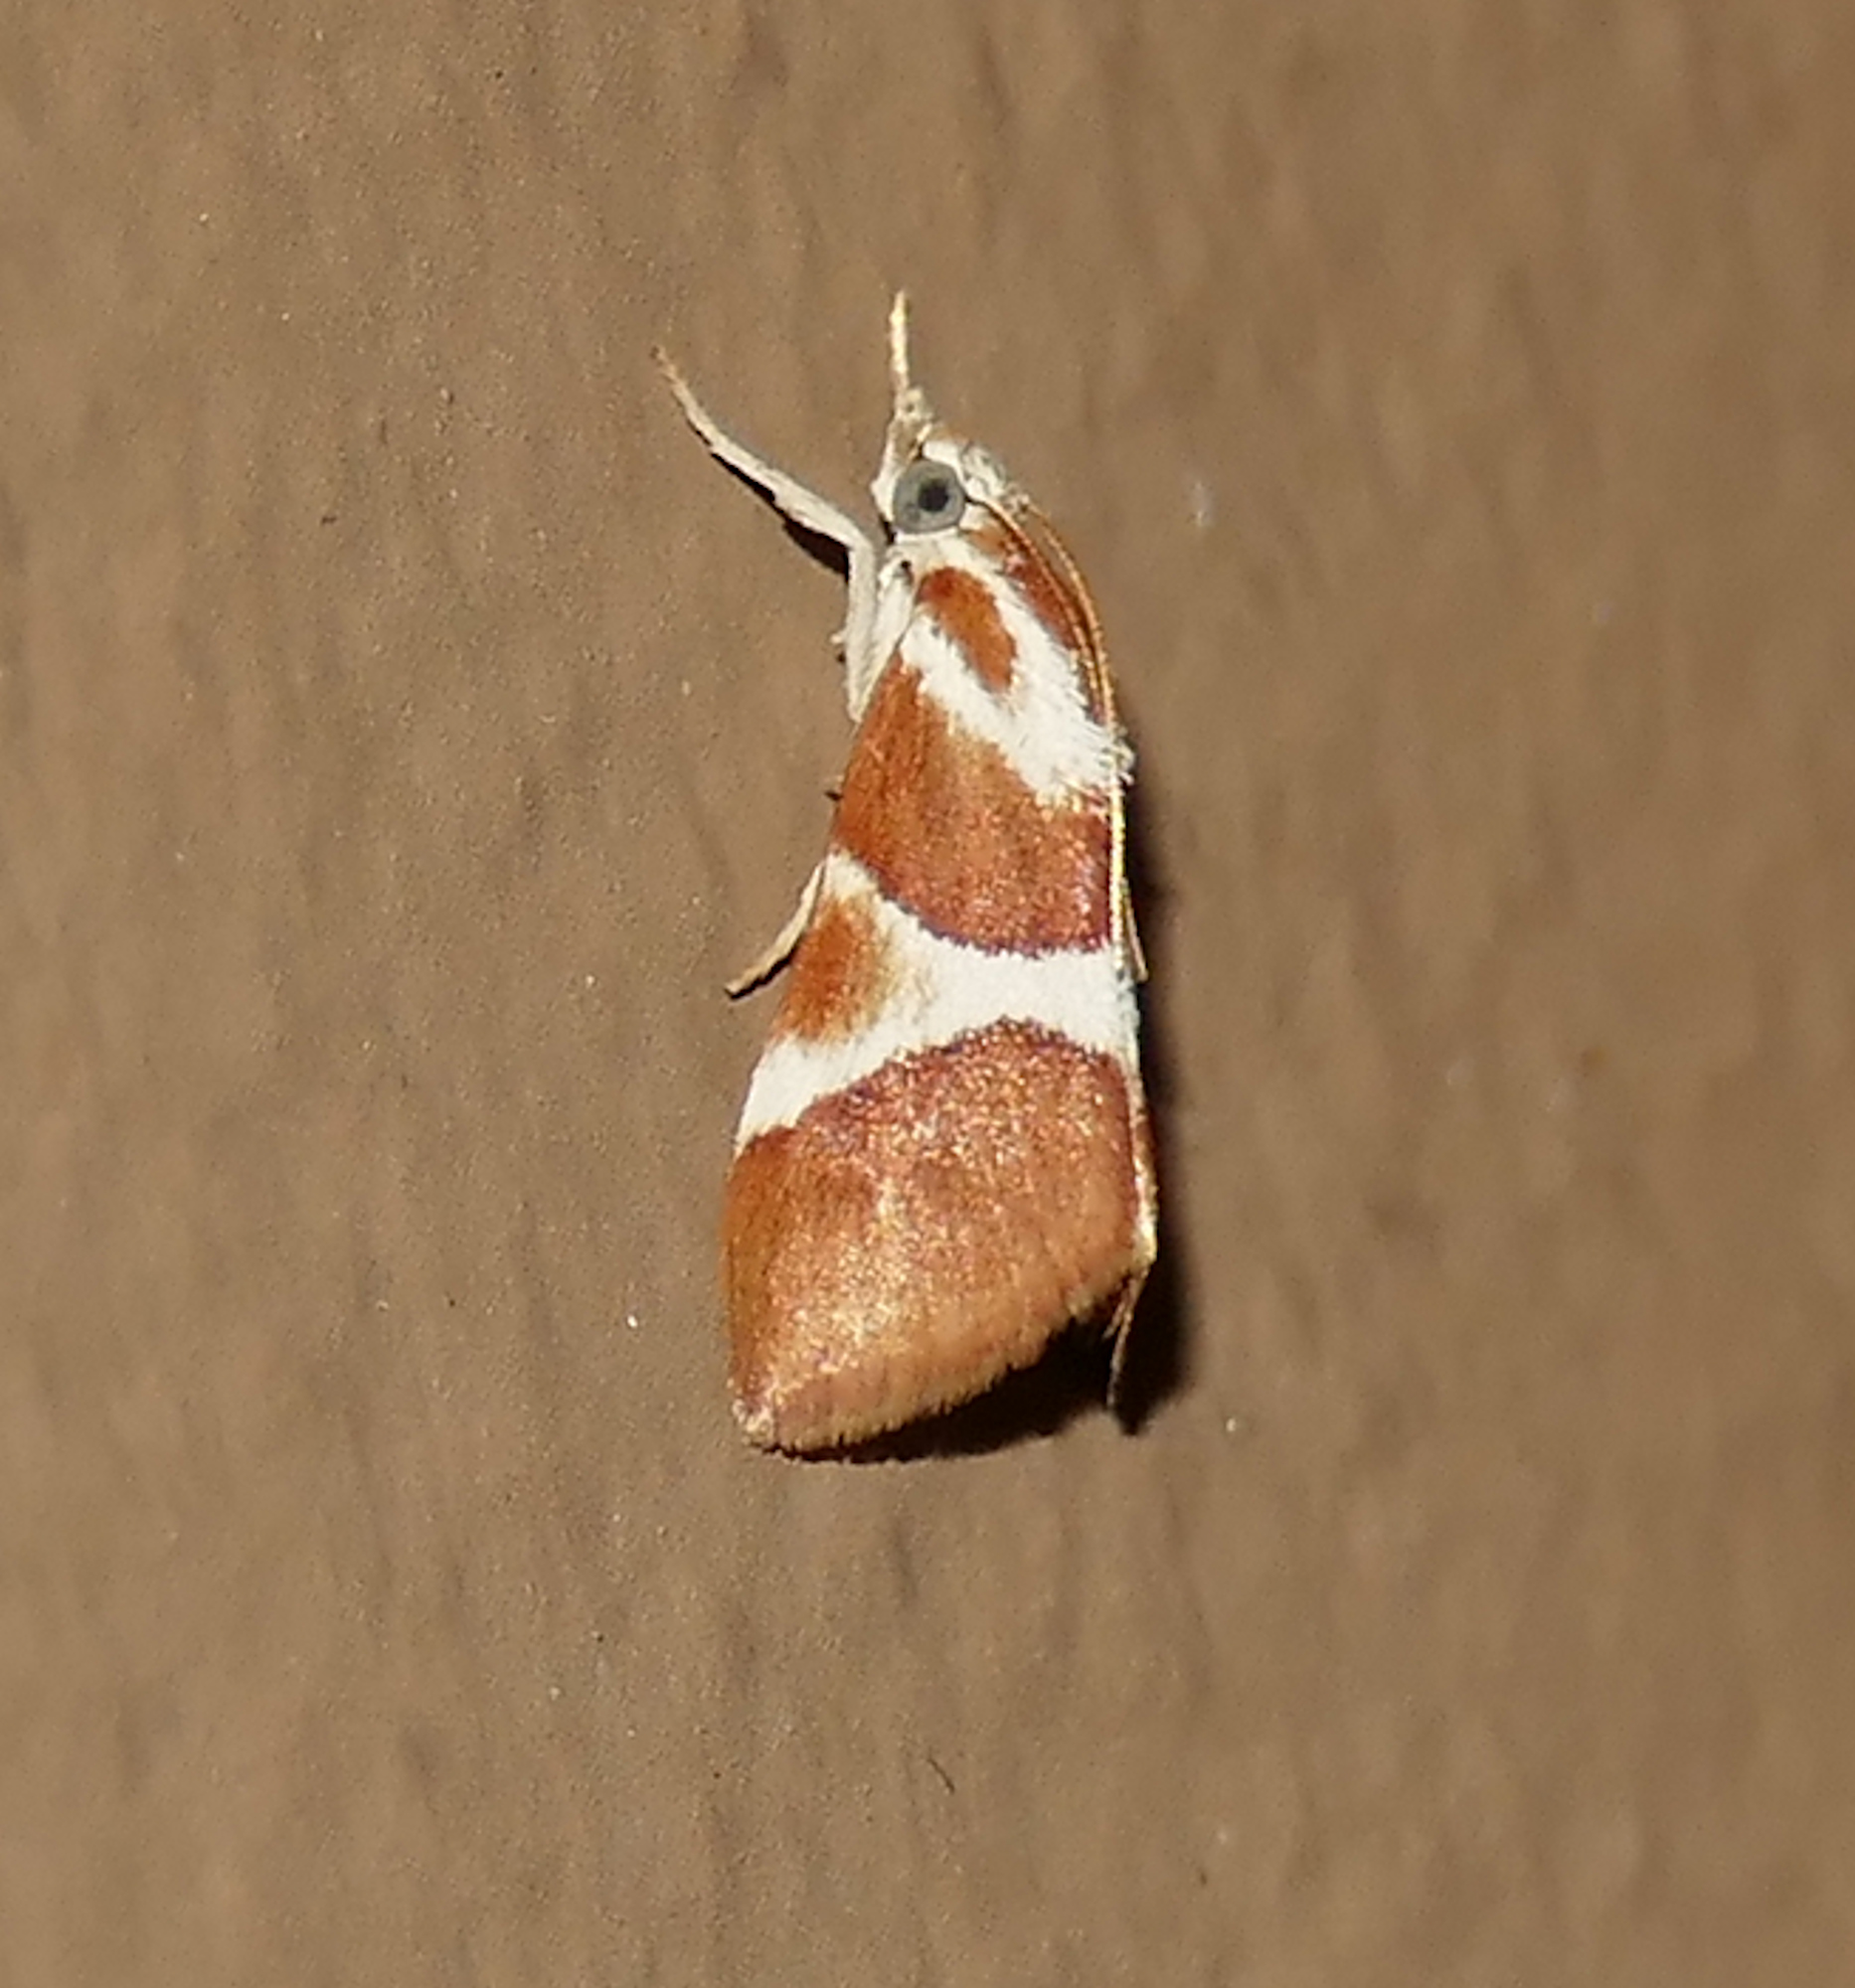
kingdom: Animalia
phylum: Arthropoda
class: Insecta
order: Lepidoptera
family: Crambidae
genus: Jativa
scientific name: Jativa castanealis
